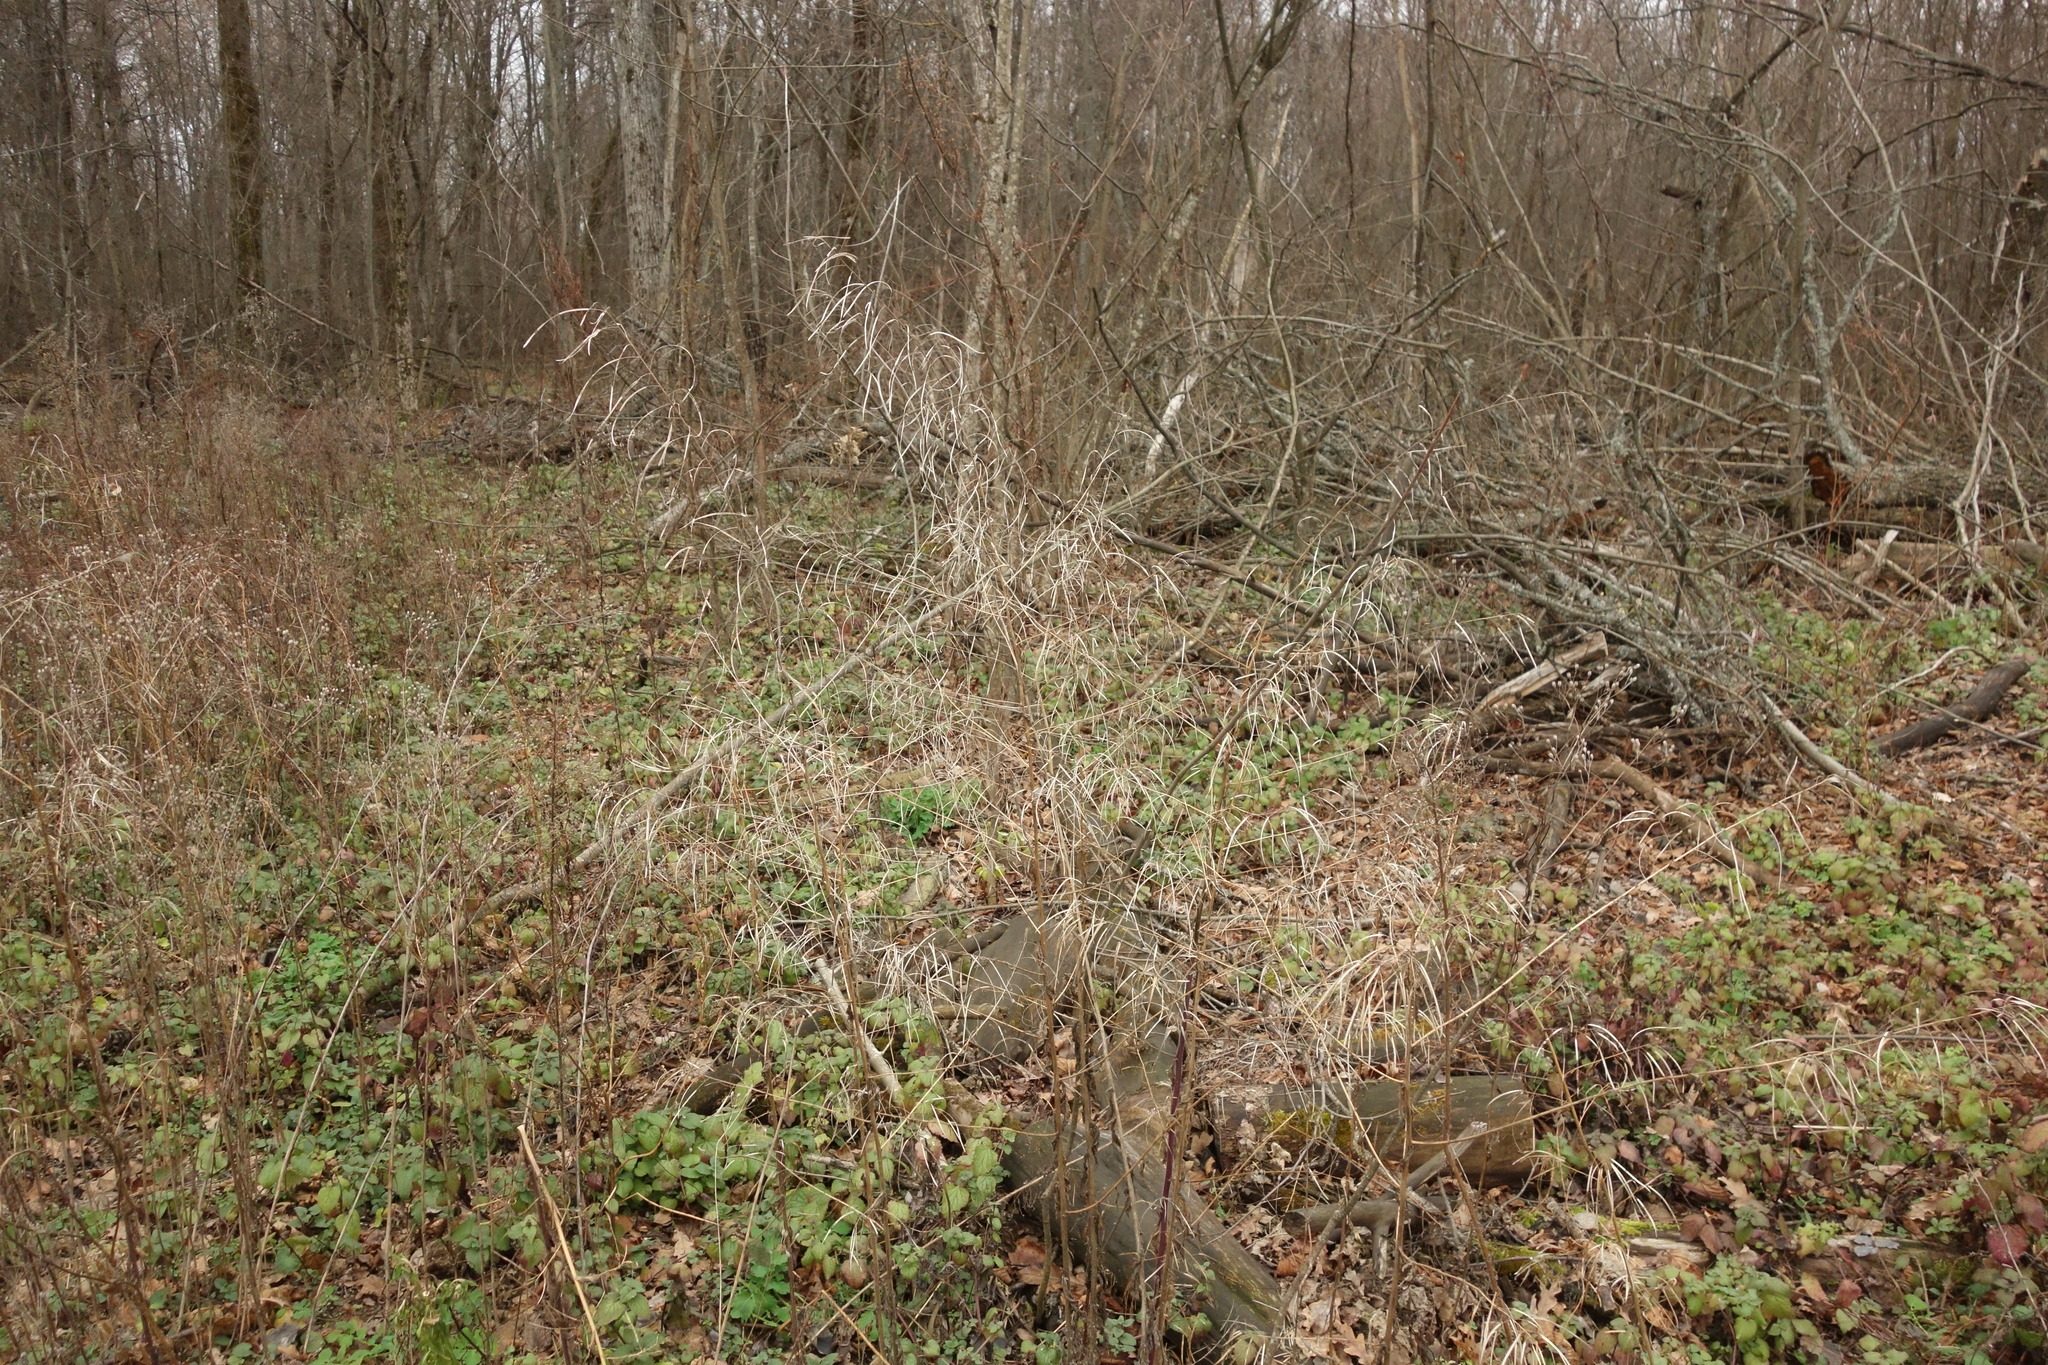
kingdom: Plantae
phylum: Tracheophyta
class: Magnoliopsida
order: Brassicales
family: Brassicaceae
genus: Catolobus
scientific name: Catolobus pendulus
